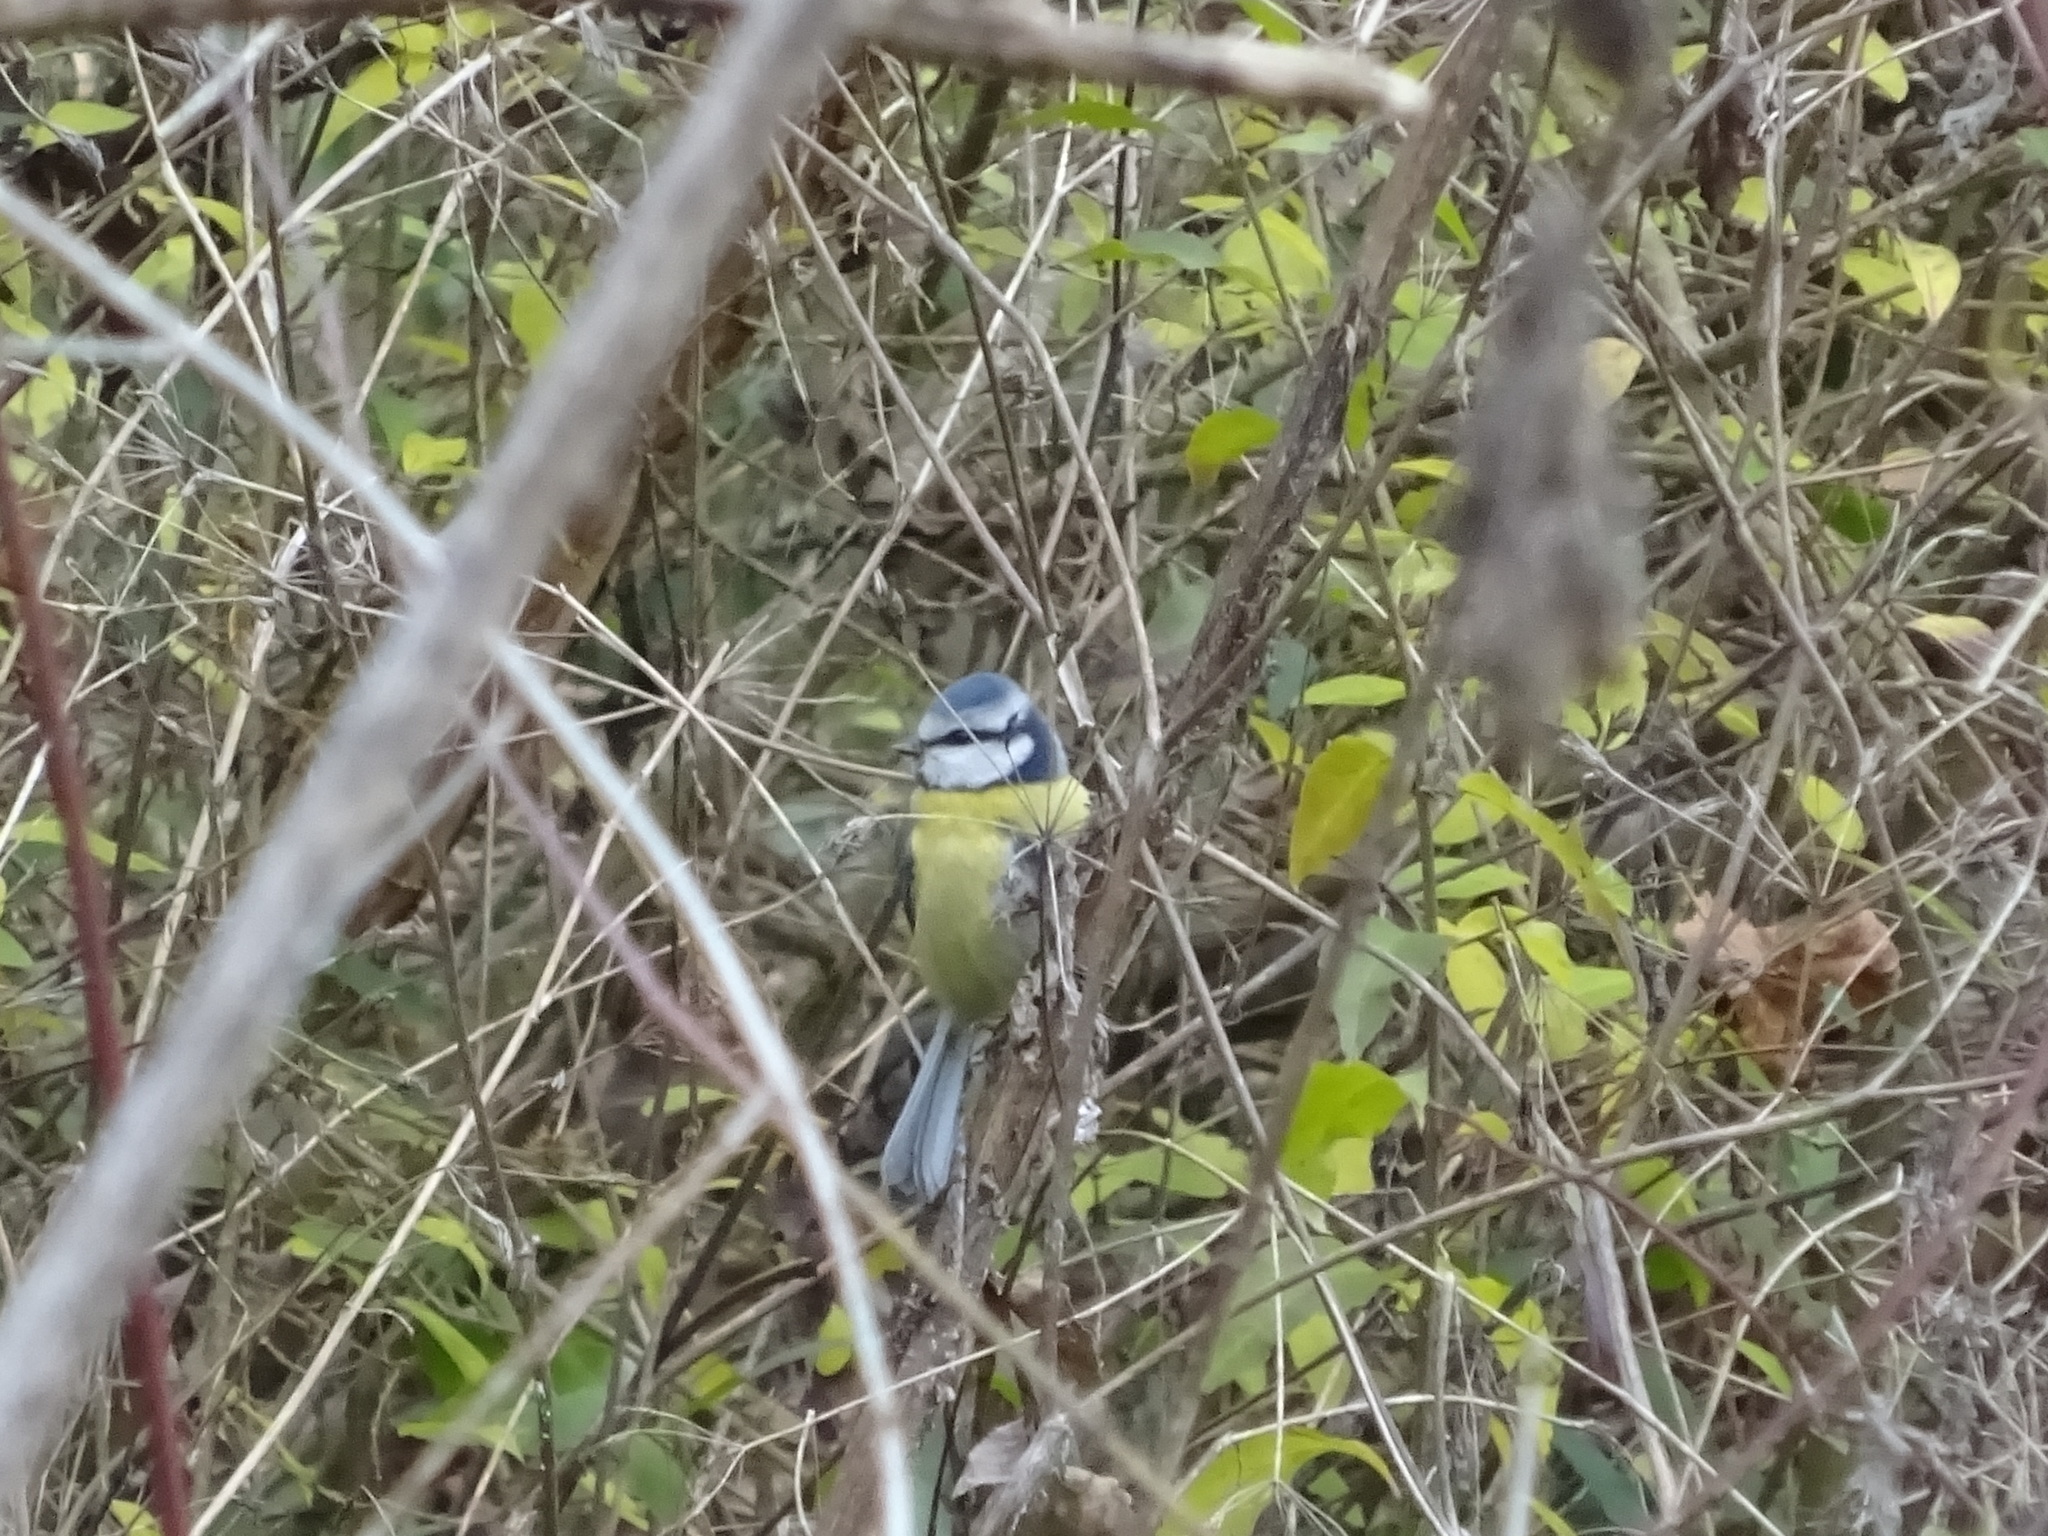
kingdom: Animalia
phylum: Chordata
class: Aves
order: Passeriformes
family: Paridae
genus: Cyanistes
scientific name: Cyanistes caeruleus
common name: Eurasian blue tit
